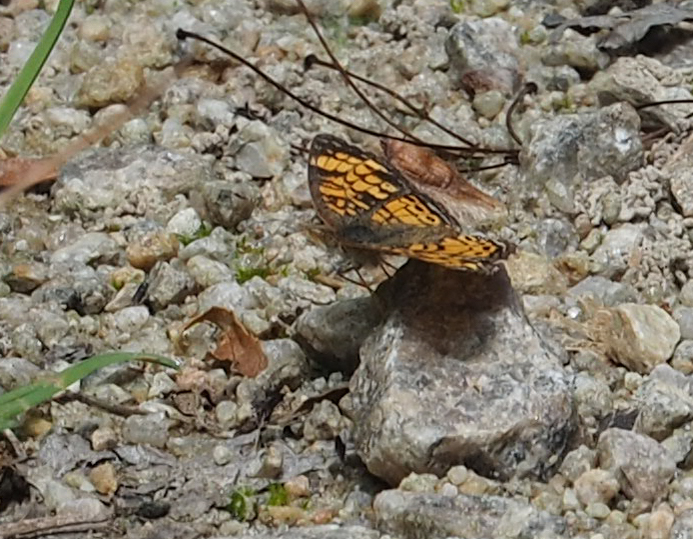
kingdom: Animalia
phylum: Arthropoda
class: Insecta
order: Lepidoptera
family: Nymphalidae
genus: Phyciodes
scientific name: Phyciodes tharos
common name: Pearl crescent
